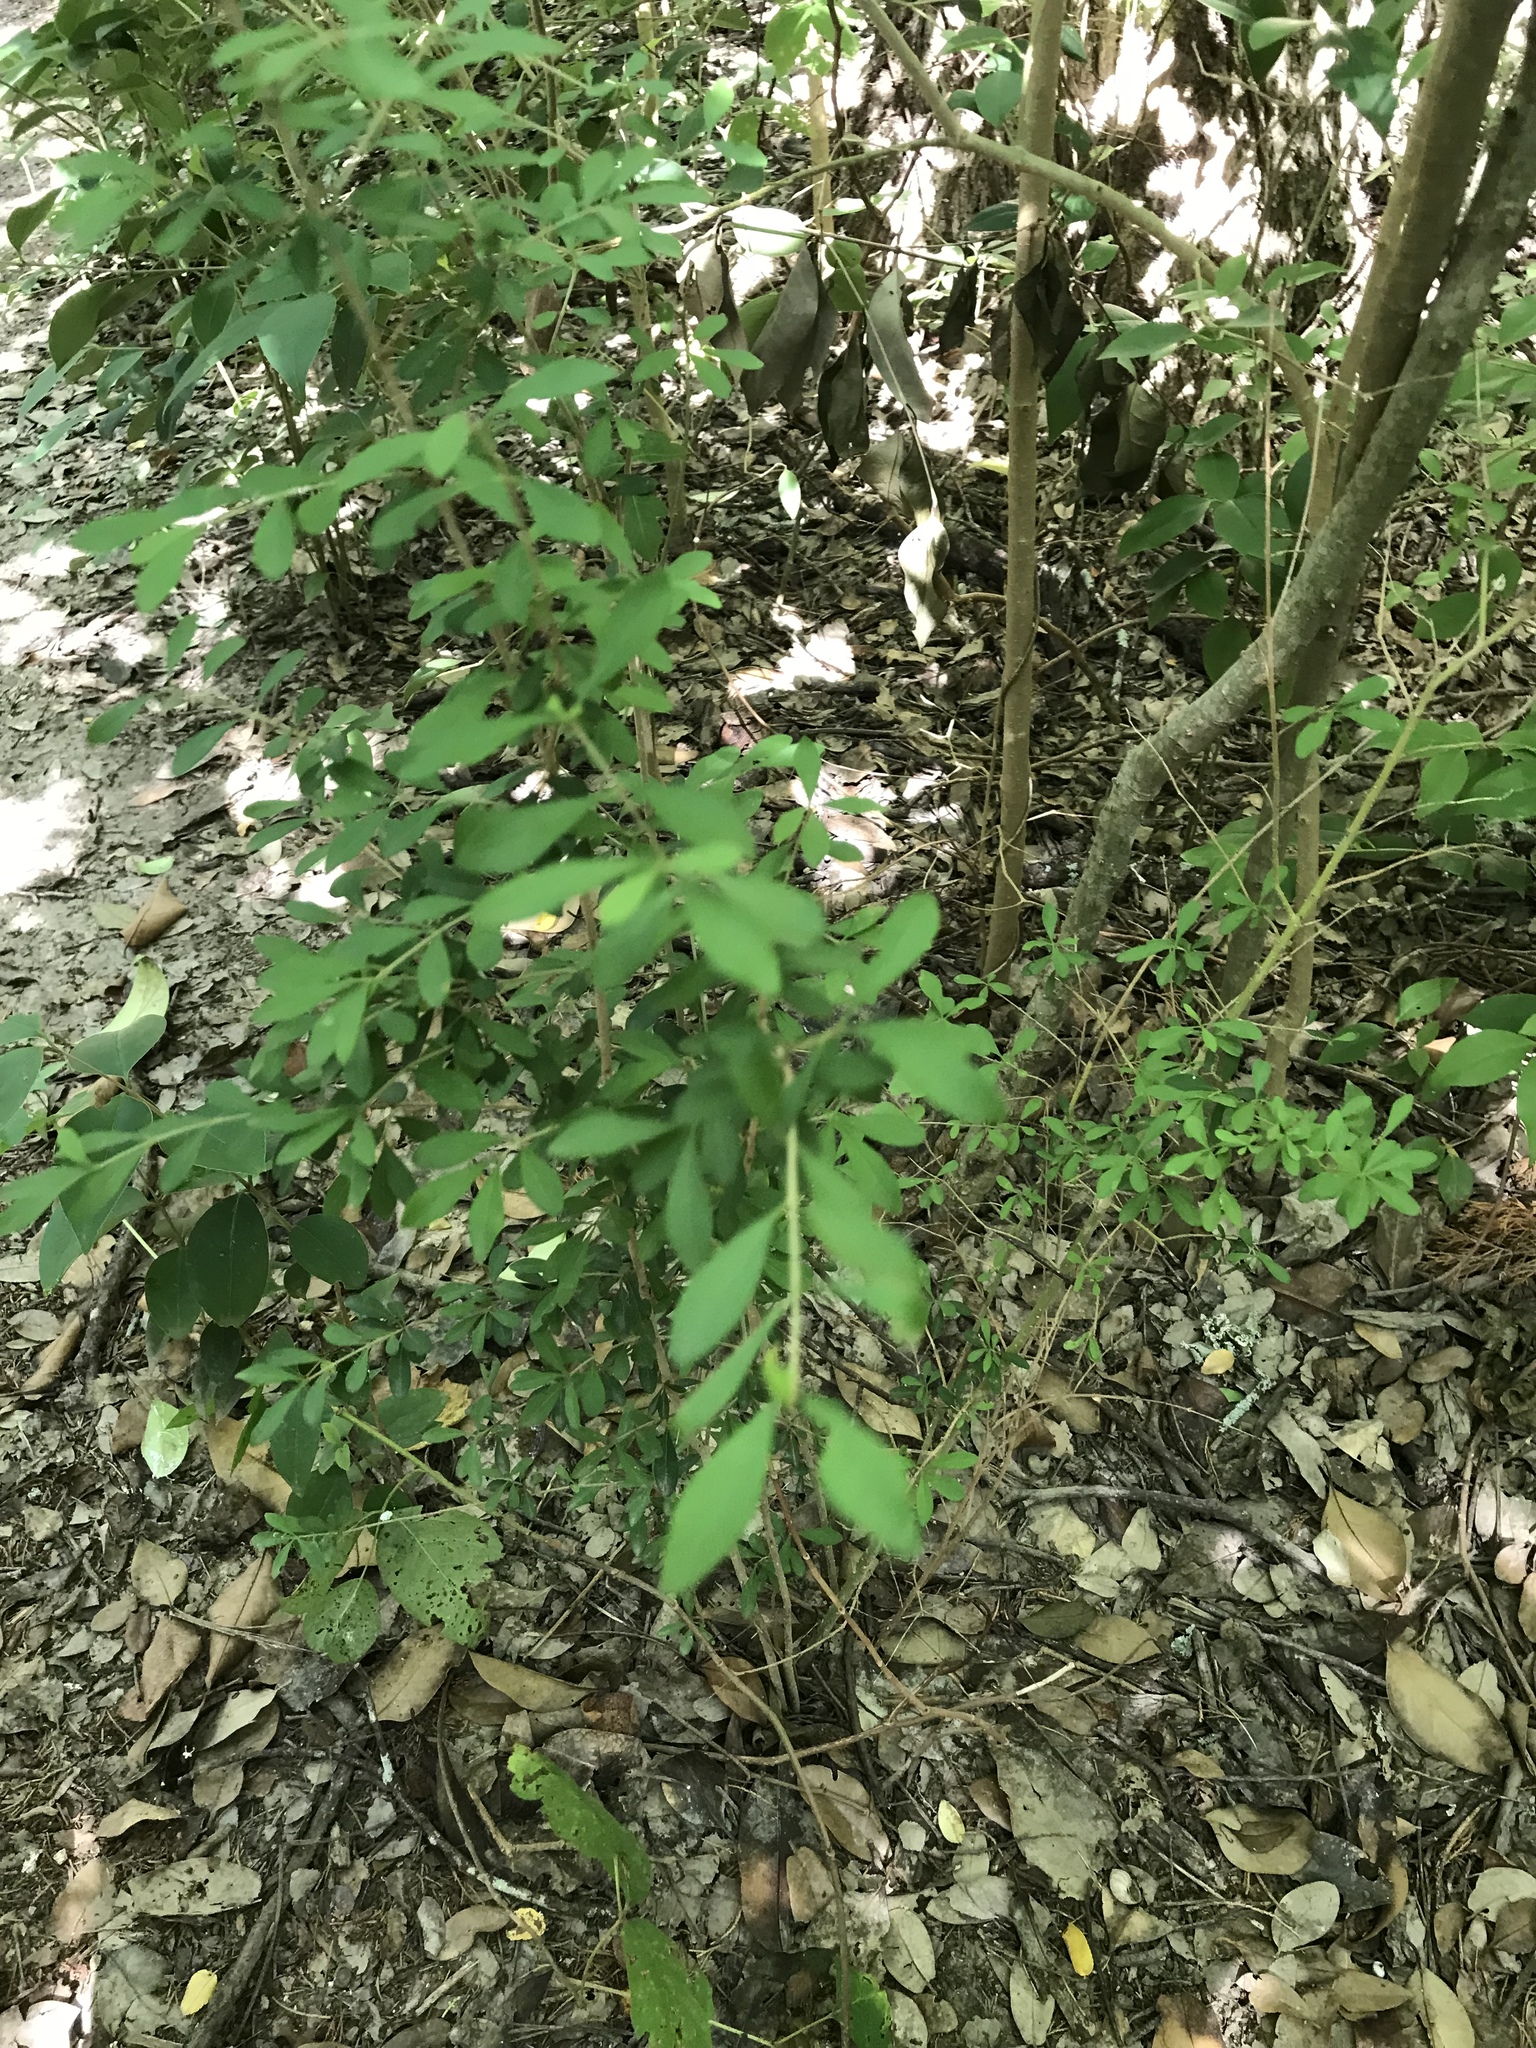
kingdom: Plantae
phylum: Tracheophyta
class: Magnoliopsida
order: Lamiales
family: Oleaceae
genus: Ligustrum
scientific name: Ligustrum quihoui
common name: Waxyleaf privet
